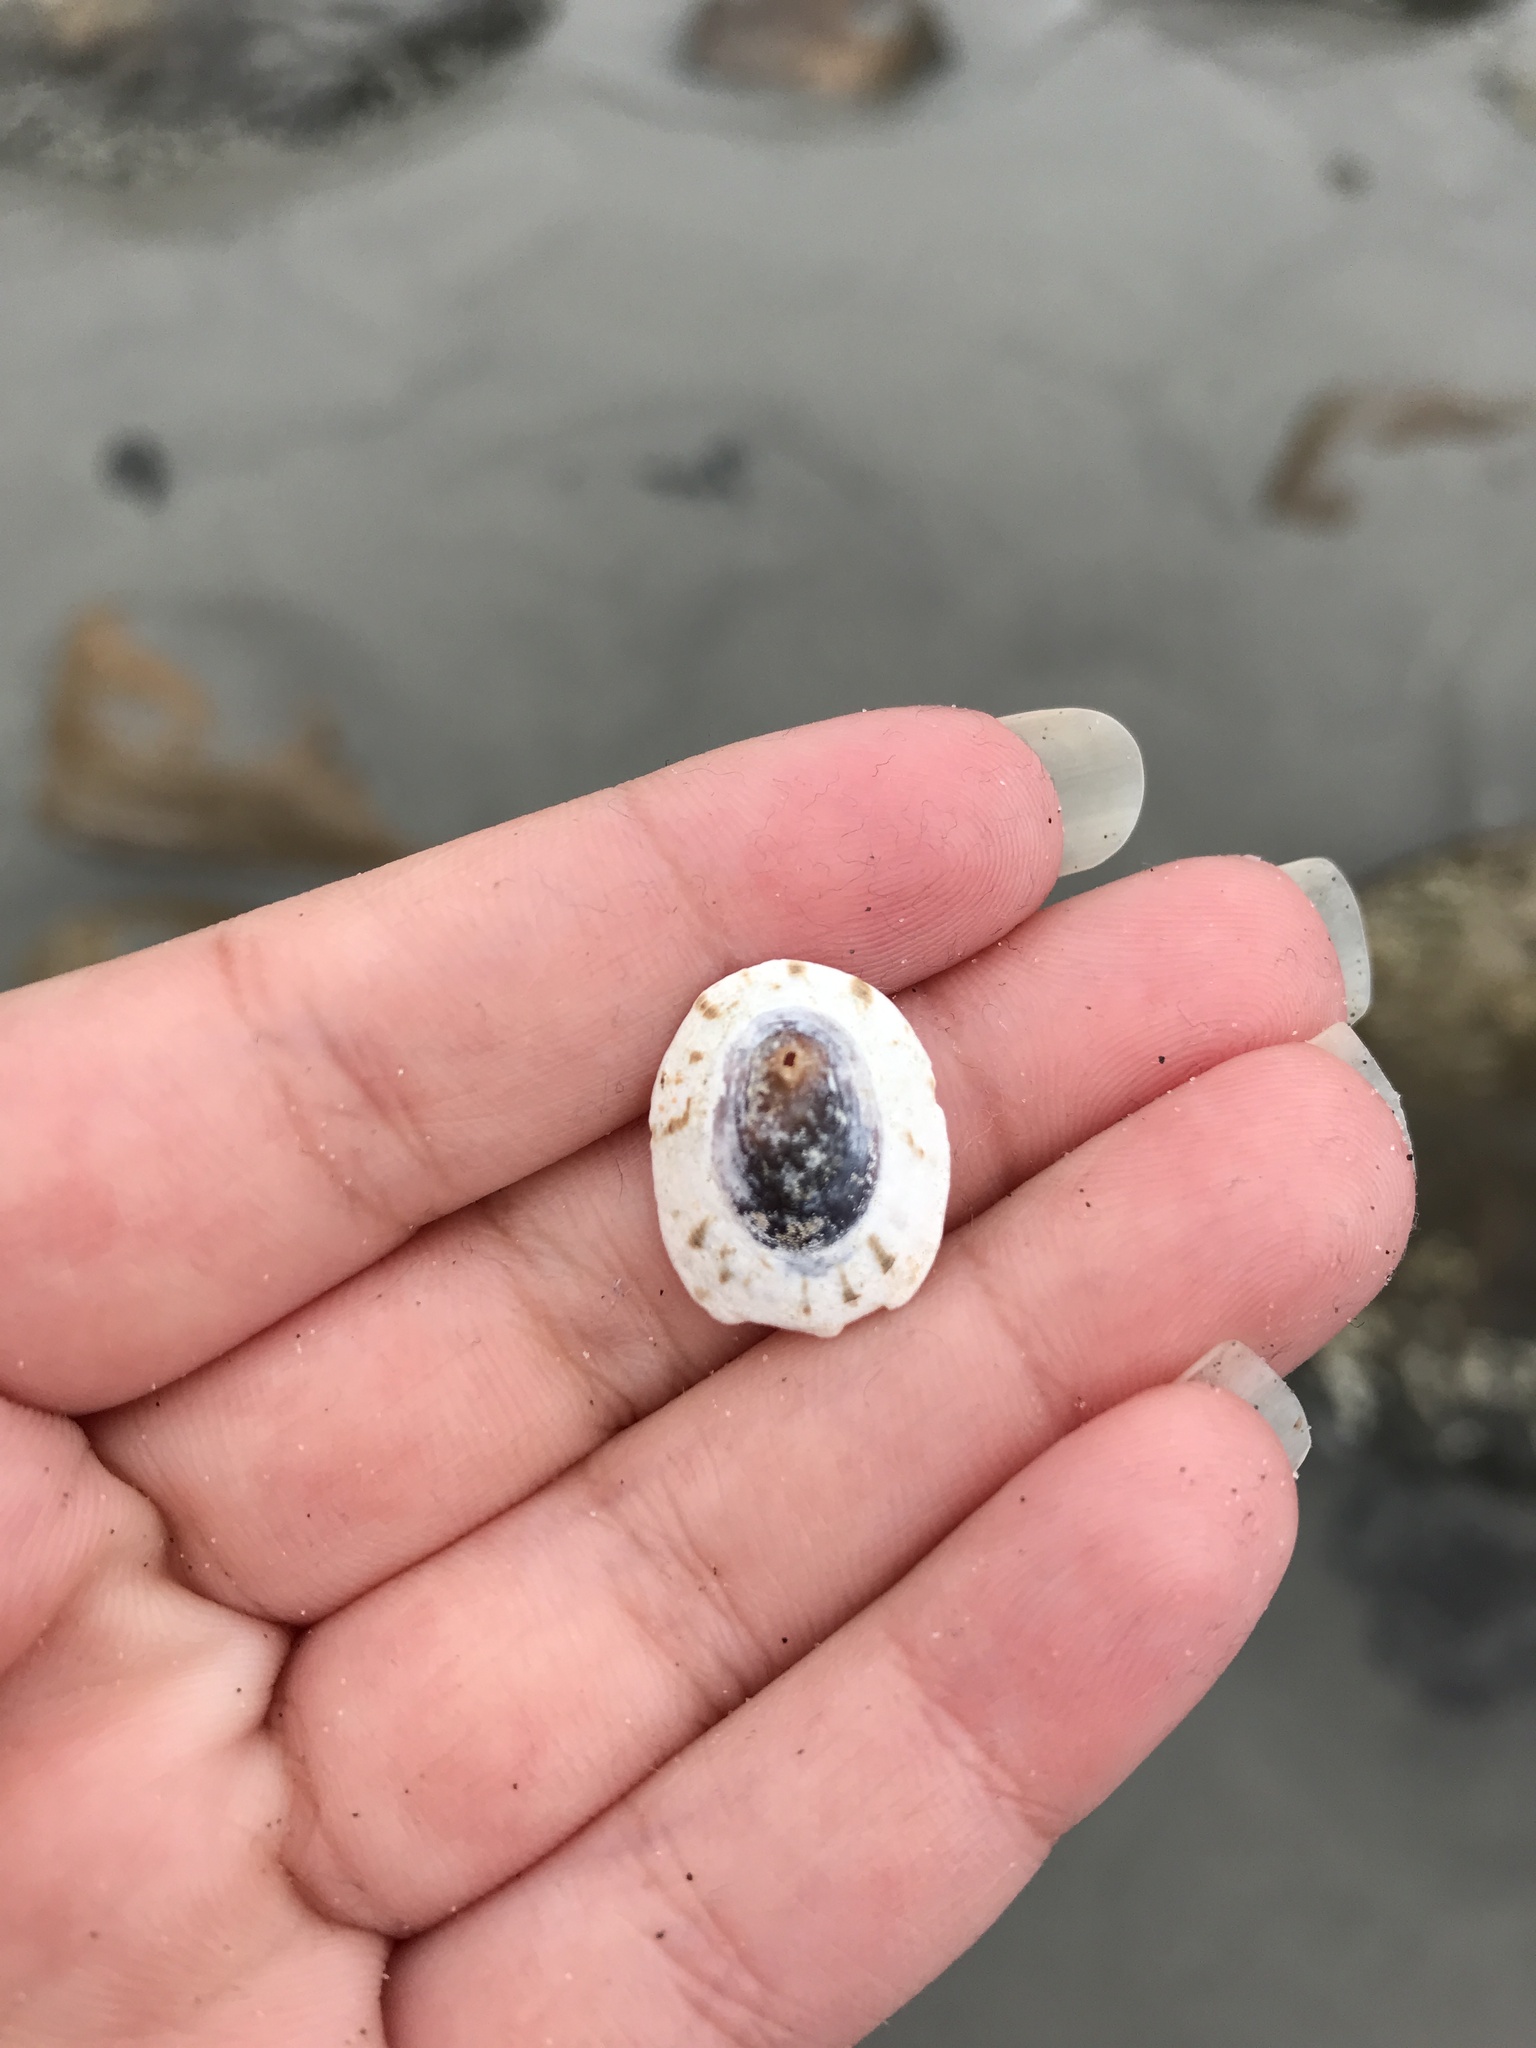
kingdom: Animalia
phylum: Mollusca
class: Gastropoda
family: Lottiidae
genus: Testudinalia
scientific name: Testudinalia testudinalis
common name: Common tortoiseshell limpet
